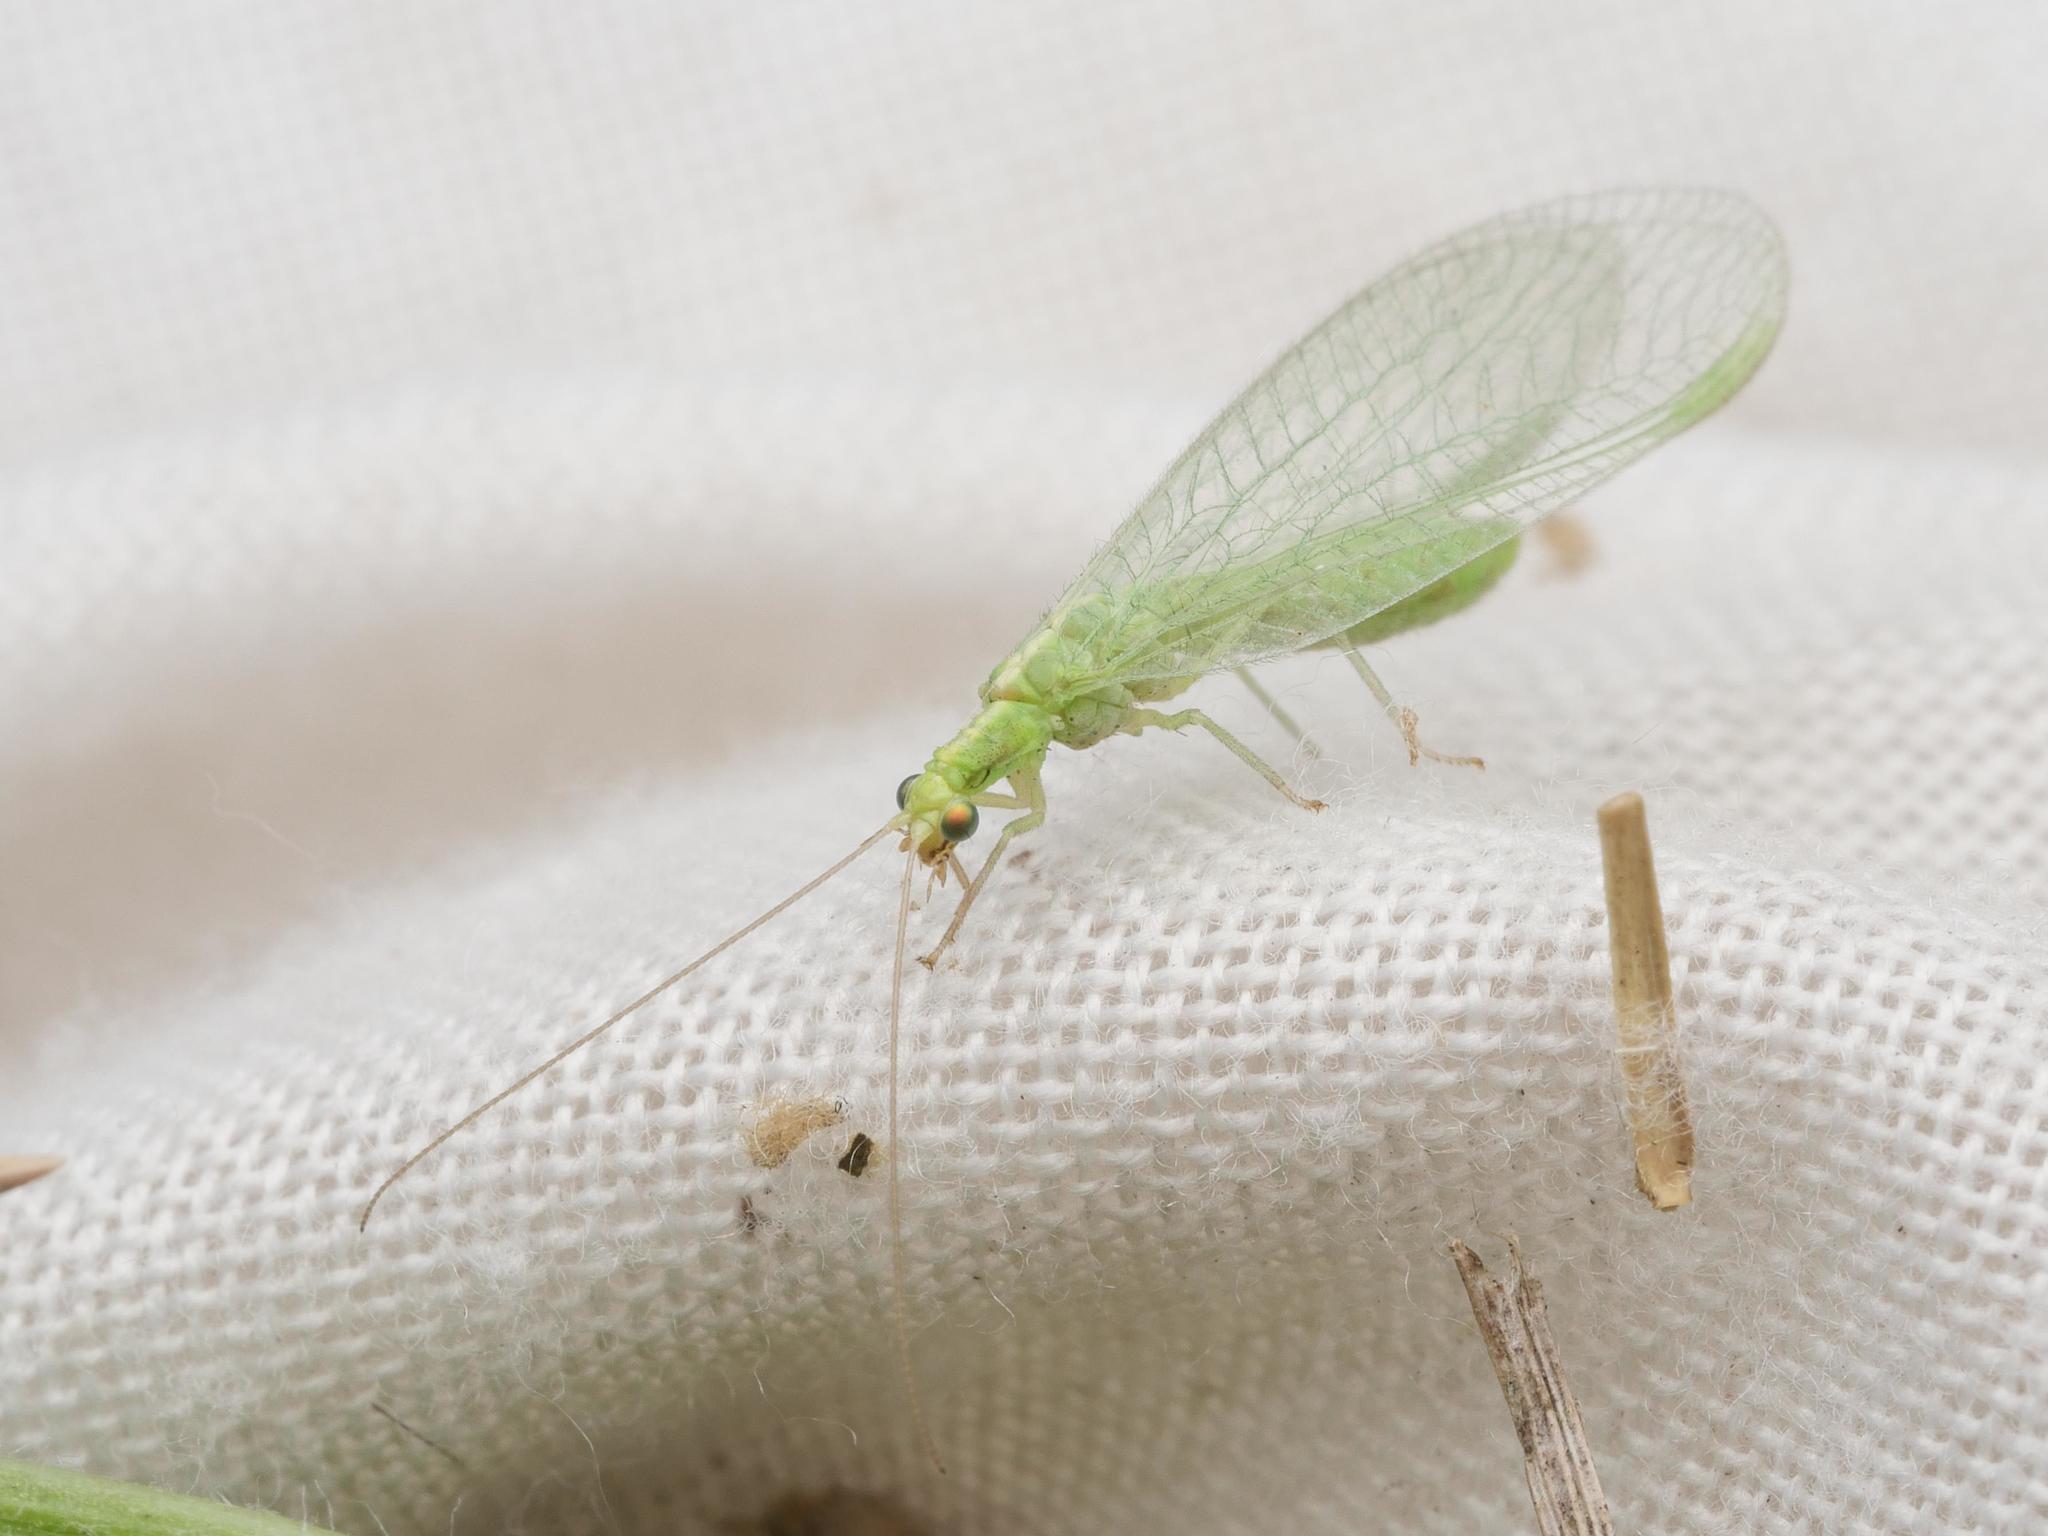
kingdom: Animalia
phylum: Arthropoda
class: Insecta
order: Neuroptera
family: Chrysopidae
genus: Chrysoperla
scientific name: Chrysoperla
